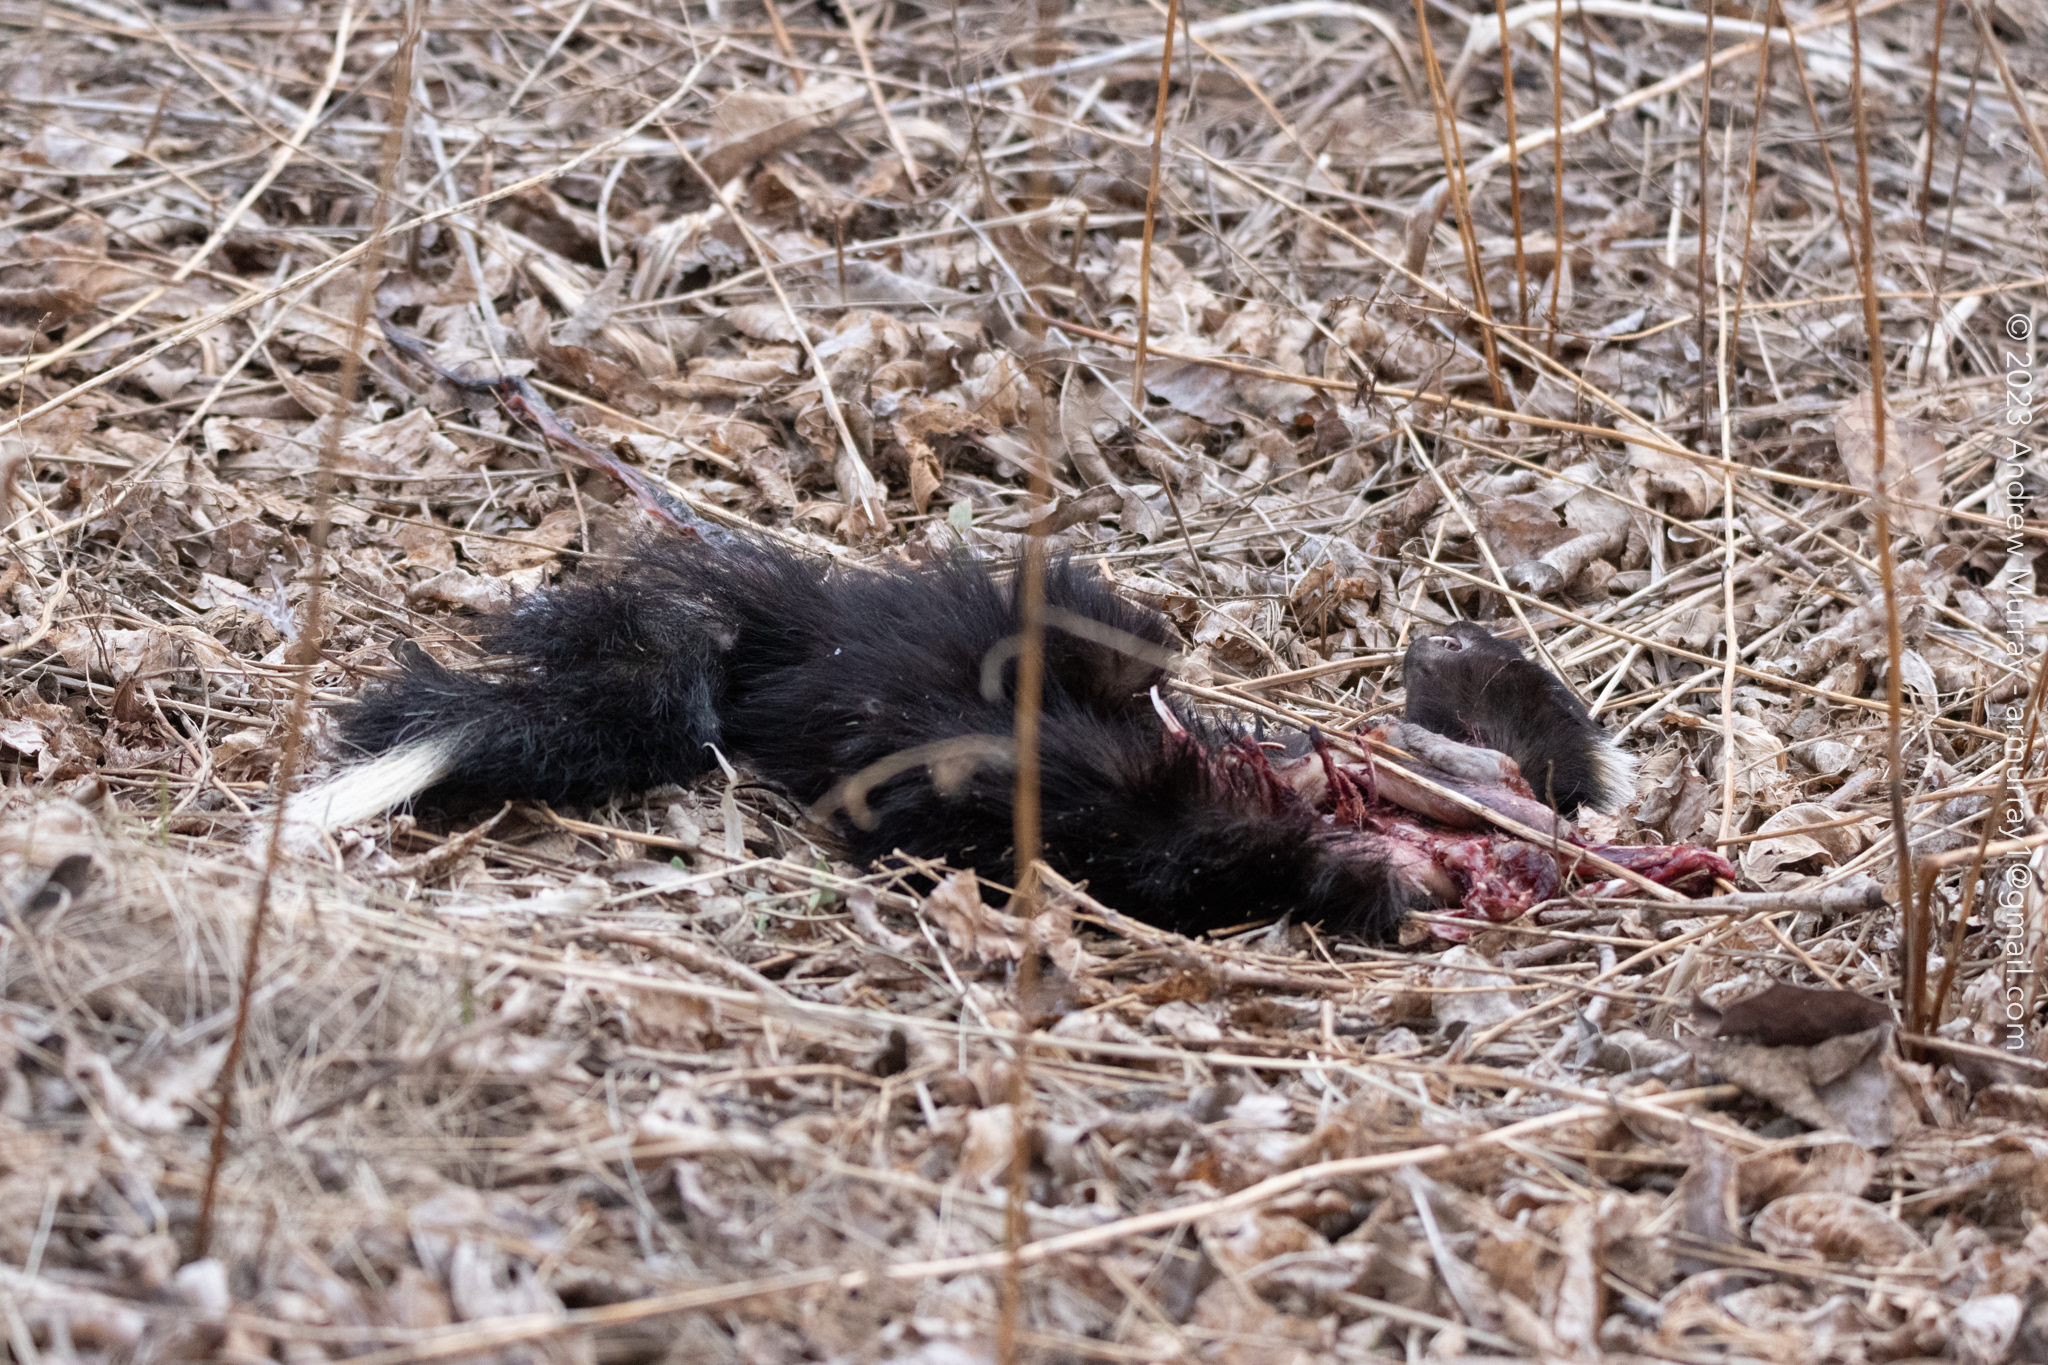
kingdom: Animalia
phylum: Chordata
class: Mammalia
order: Carnivora
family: Mephitidae
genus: Mephitis
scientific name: Mephitis mephitis
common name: Striped skunk
